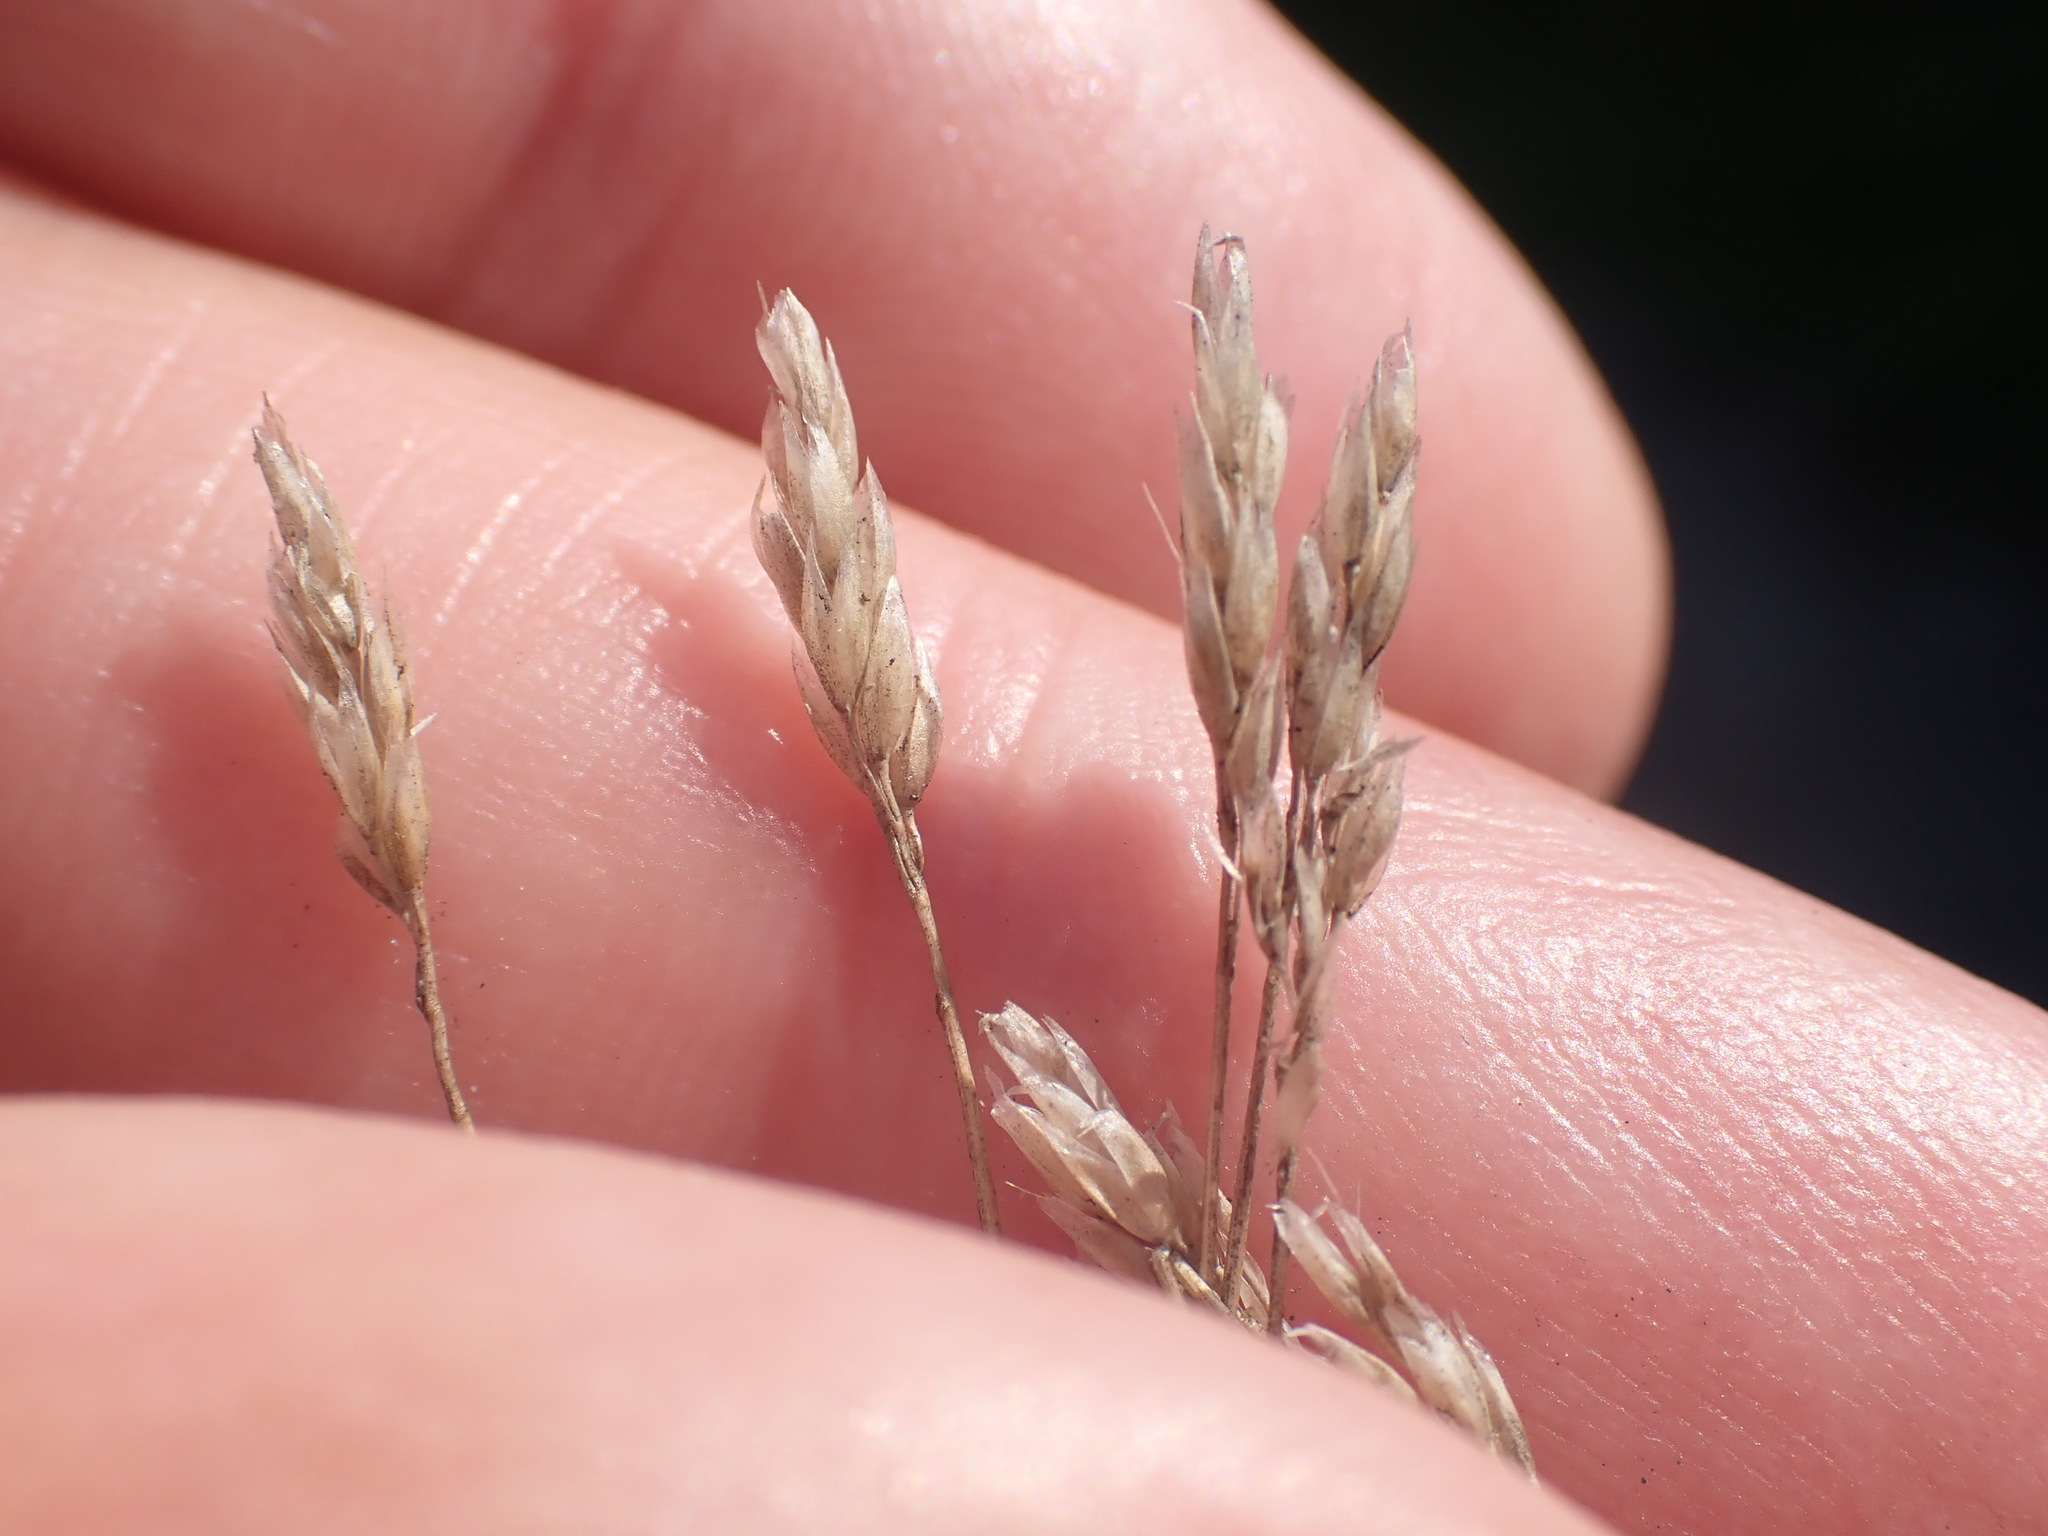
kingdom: Plantae
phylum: Tracheophyta
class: Liliopsida
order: Poales
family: Poaceae
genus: Aira
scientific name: Aira praecox
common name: Early hair-grass
